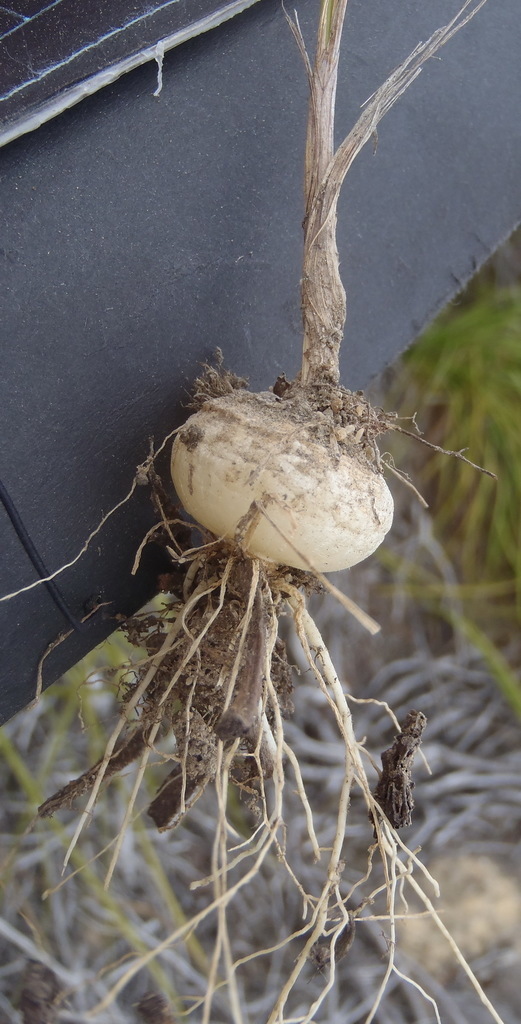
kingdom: Plantae
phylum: Tracheophyta
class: Liliopsida
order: Asparagales
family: Asparagaceae
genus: Ornithogalum
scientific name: Ornithogalum juncifolium
